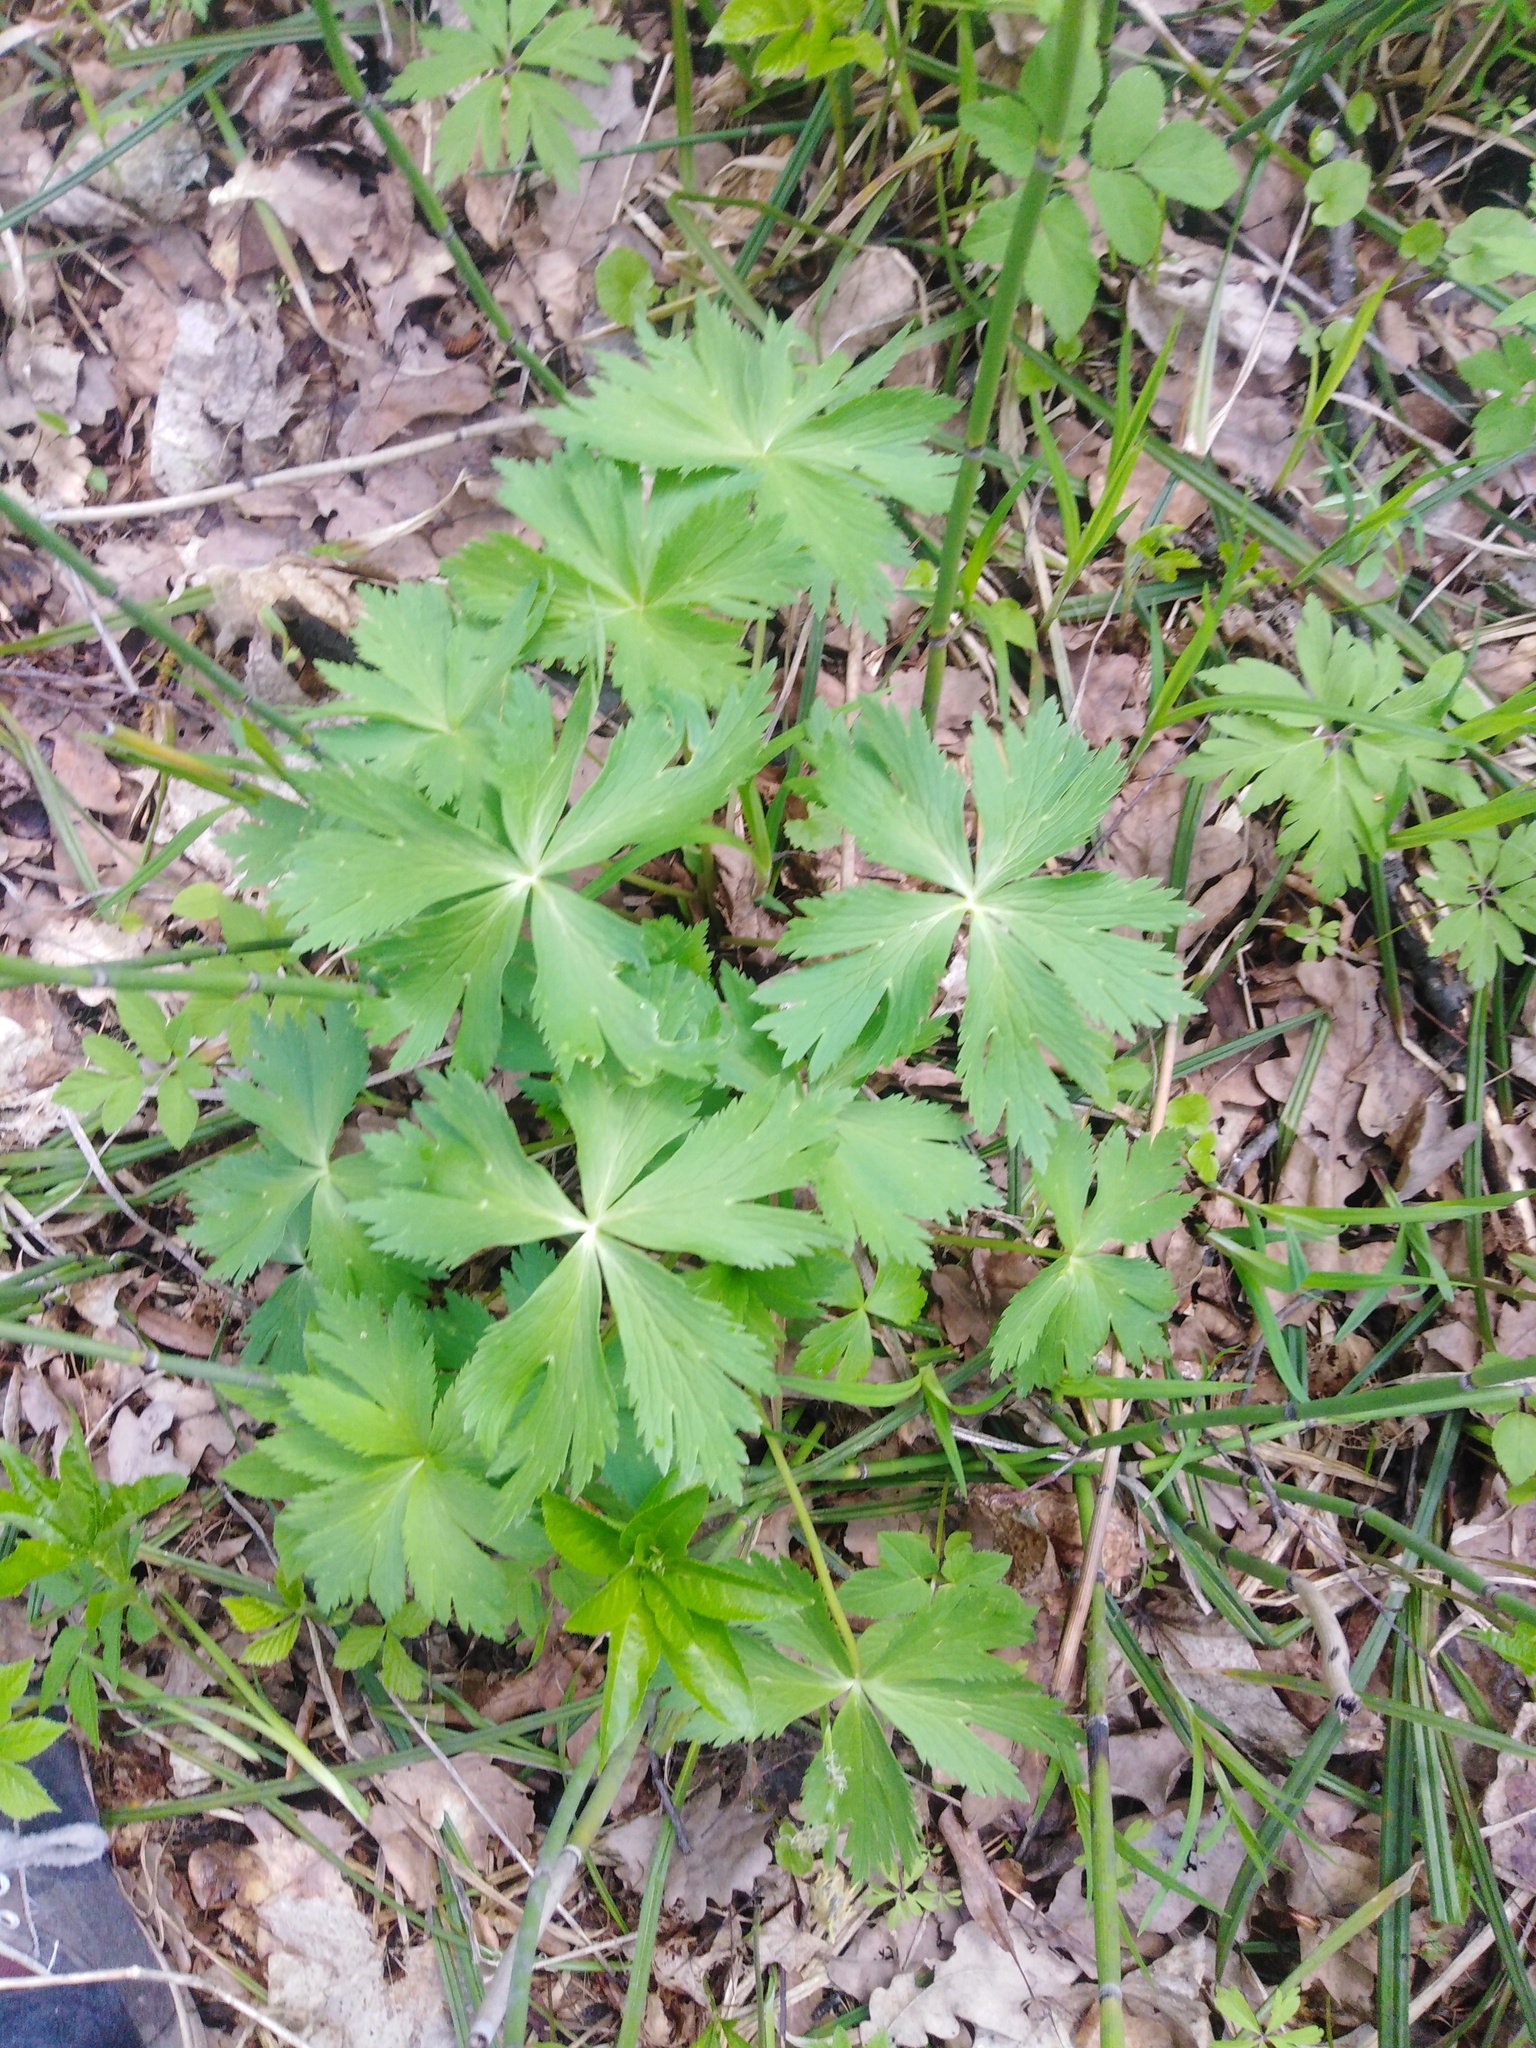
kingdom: Plantae
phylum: Tracheophyta
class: Magnoliopsida
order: Ranunculales
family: Ranunculaceae
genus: Trollius
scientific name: Trollius europaeus
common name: European globeflower
